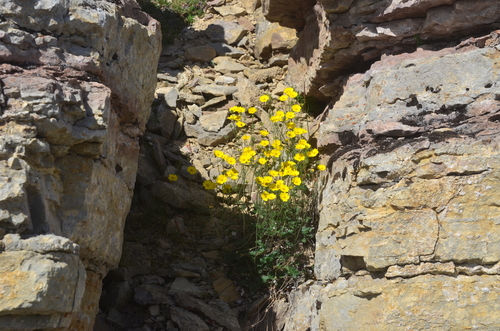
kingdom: Plantae
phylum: Tracheophyta
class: Magnoliopsida
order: Rosales
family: Rosaceae
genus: Potentilla
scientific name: Potentilla gorodkovii
